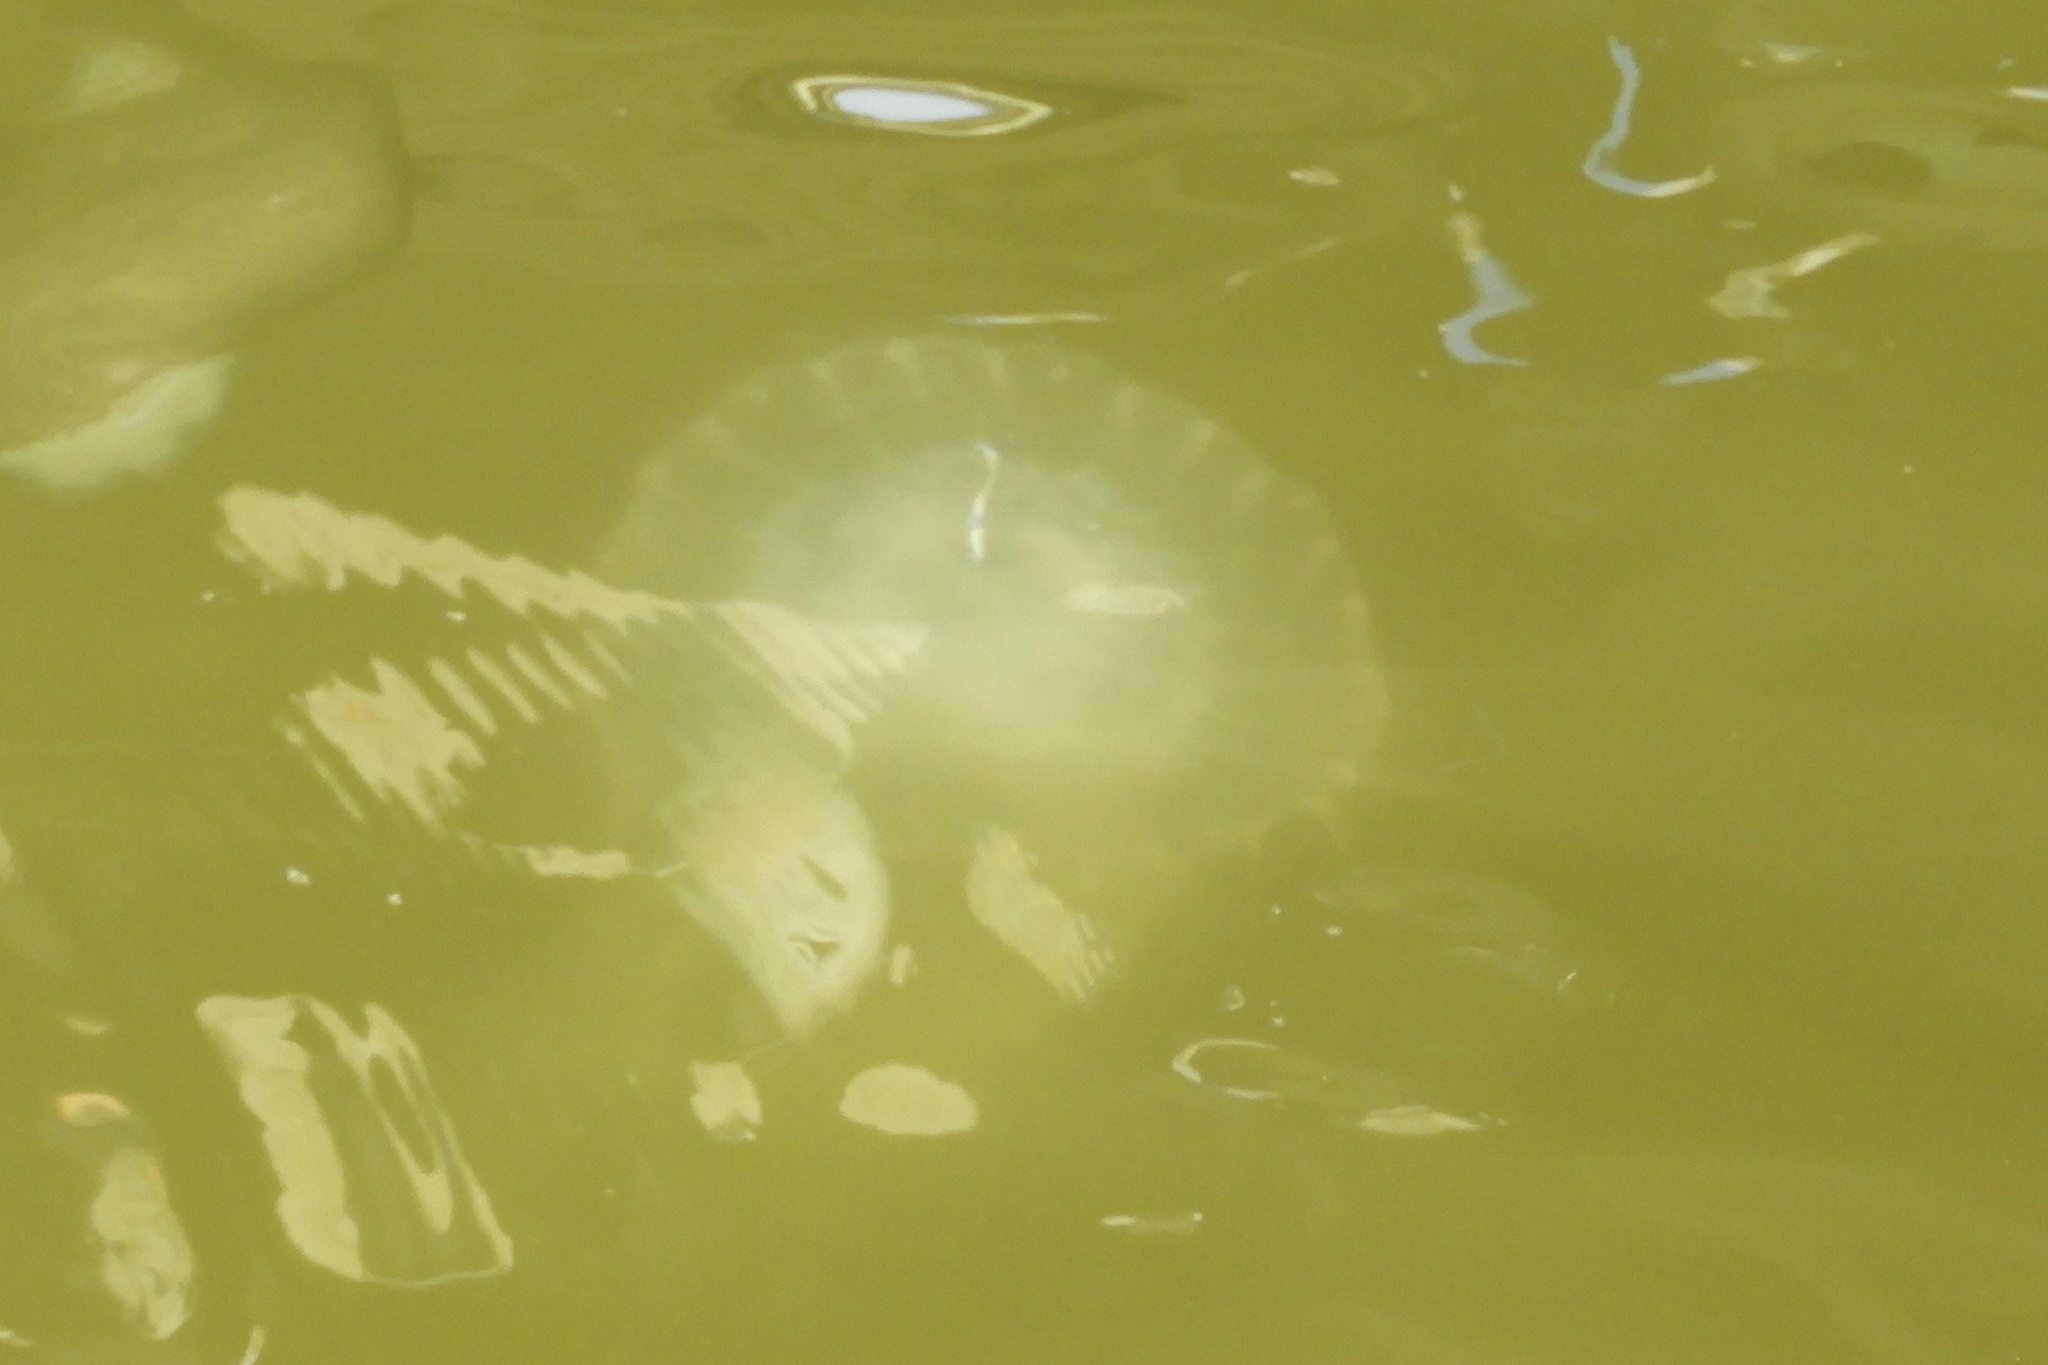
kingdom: Animalia
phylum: Cnidaria
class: Scyphozoa
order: Semaeostomeae
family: Pelagiidae
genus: Chrysaora
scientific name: Chrysaora chesapeakei
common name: Bay nettle
